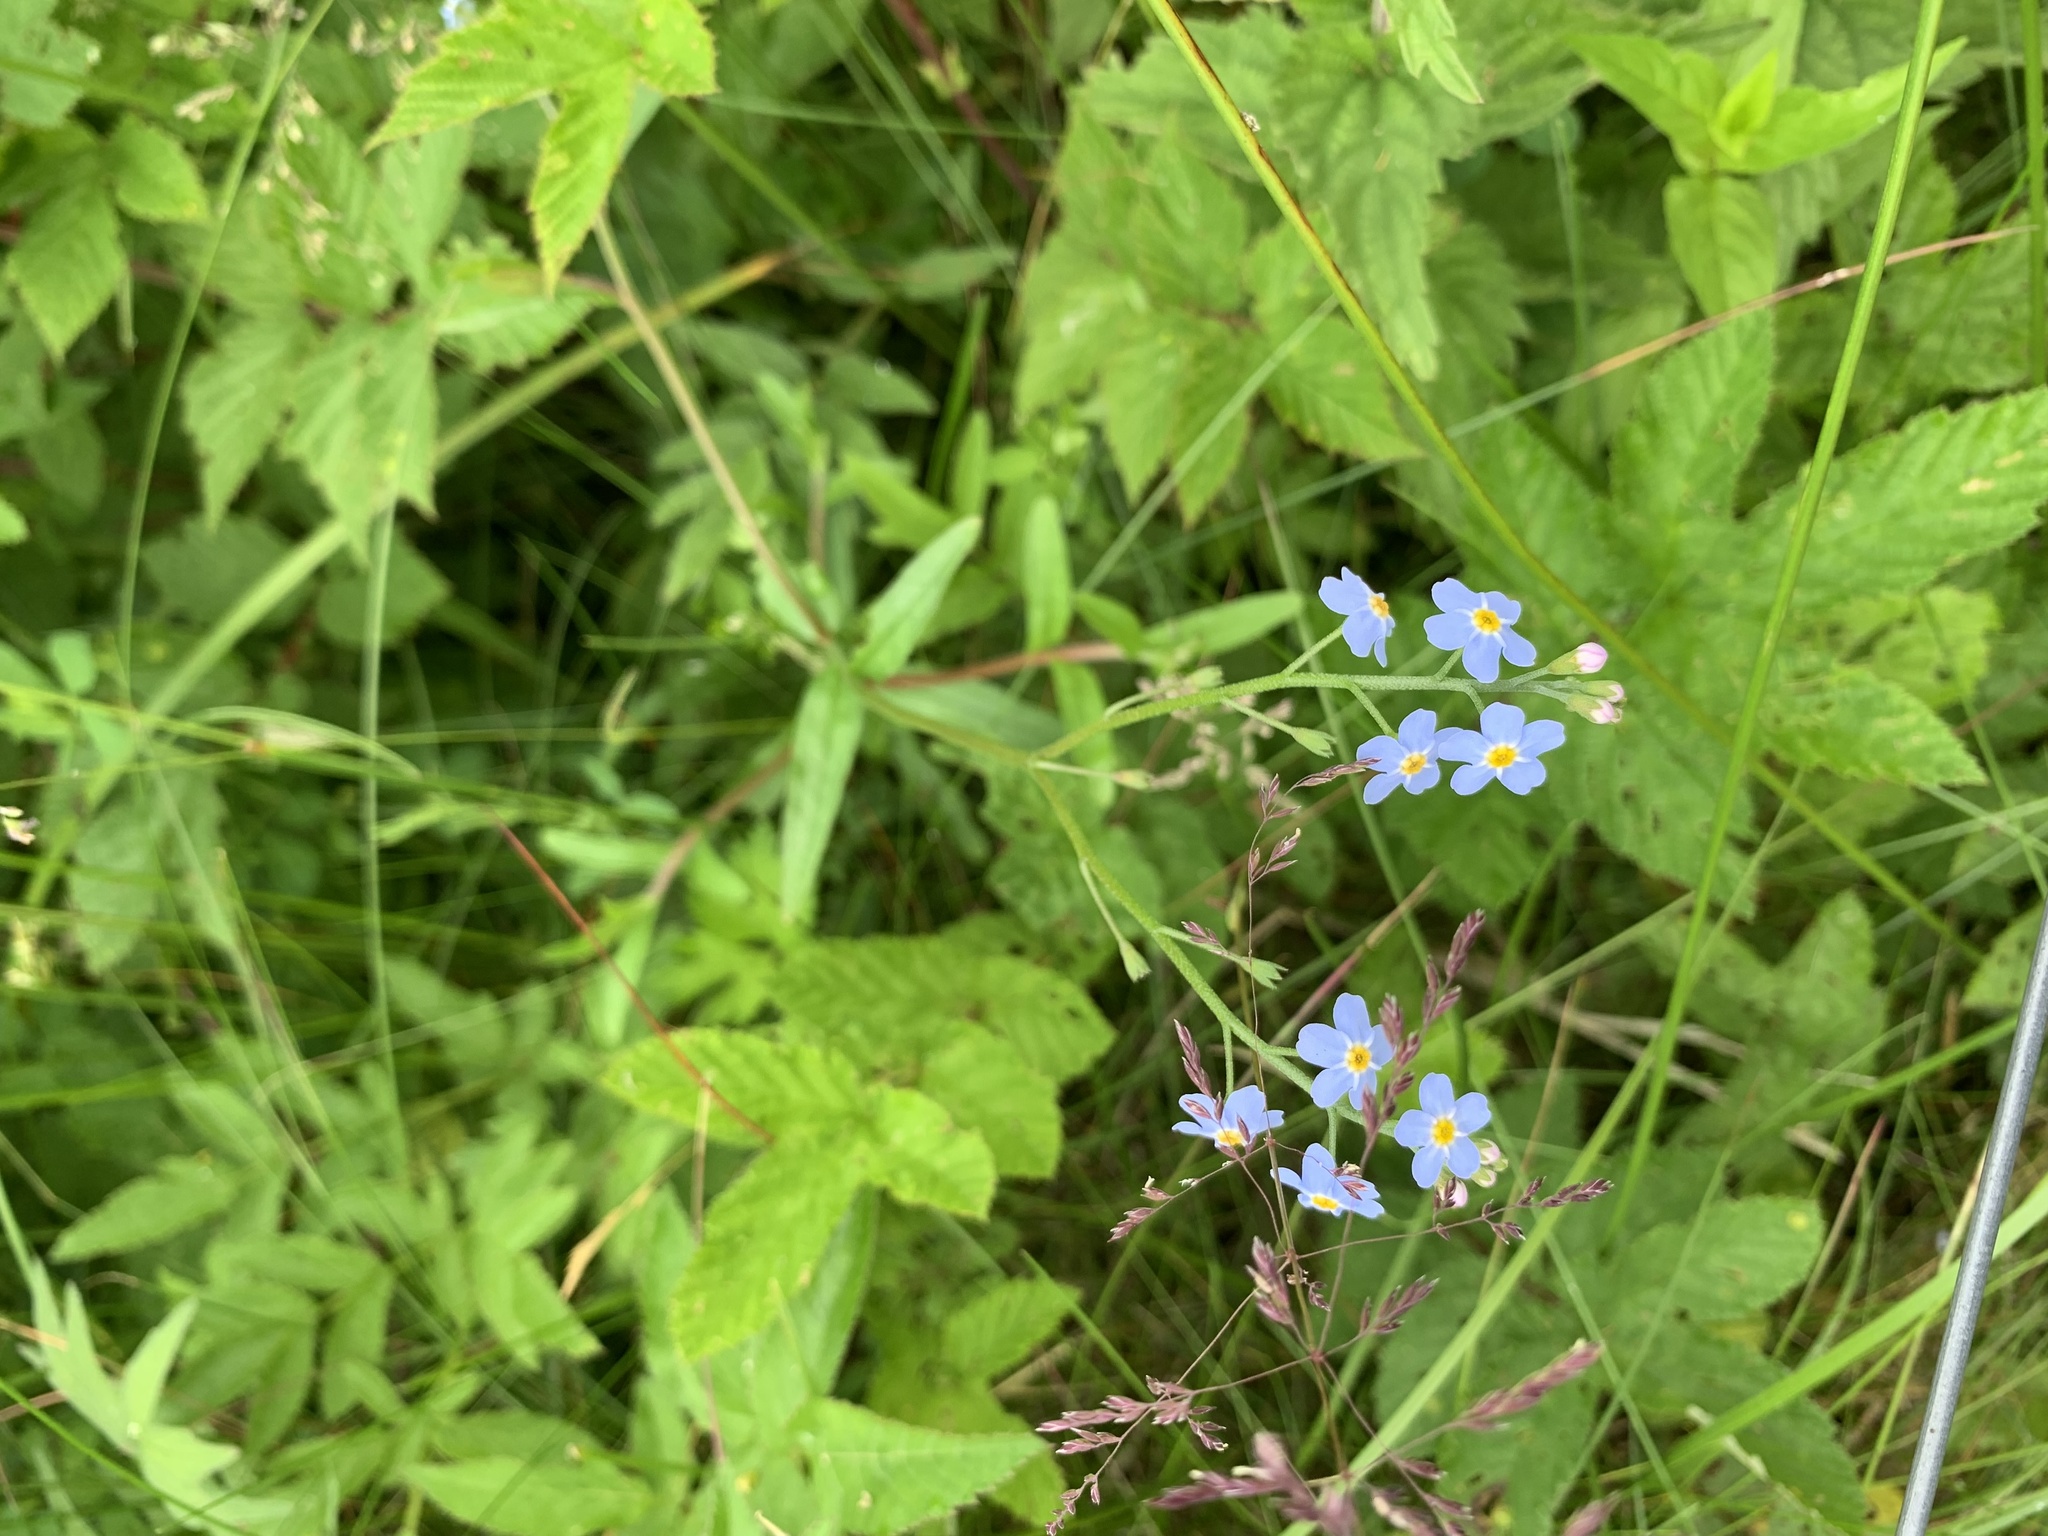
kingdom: Plantae
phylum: Tracheophyta
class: Magnoliopsida
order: Boraginales
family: Boraginaceae
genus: Myosotis
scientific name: Myosotis scorpioides
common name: Water forget-me-not
